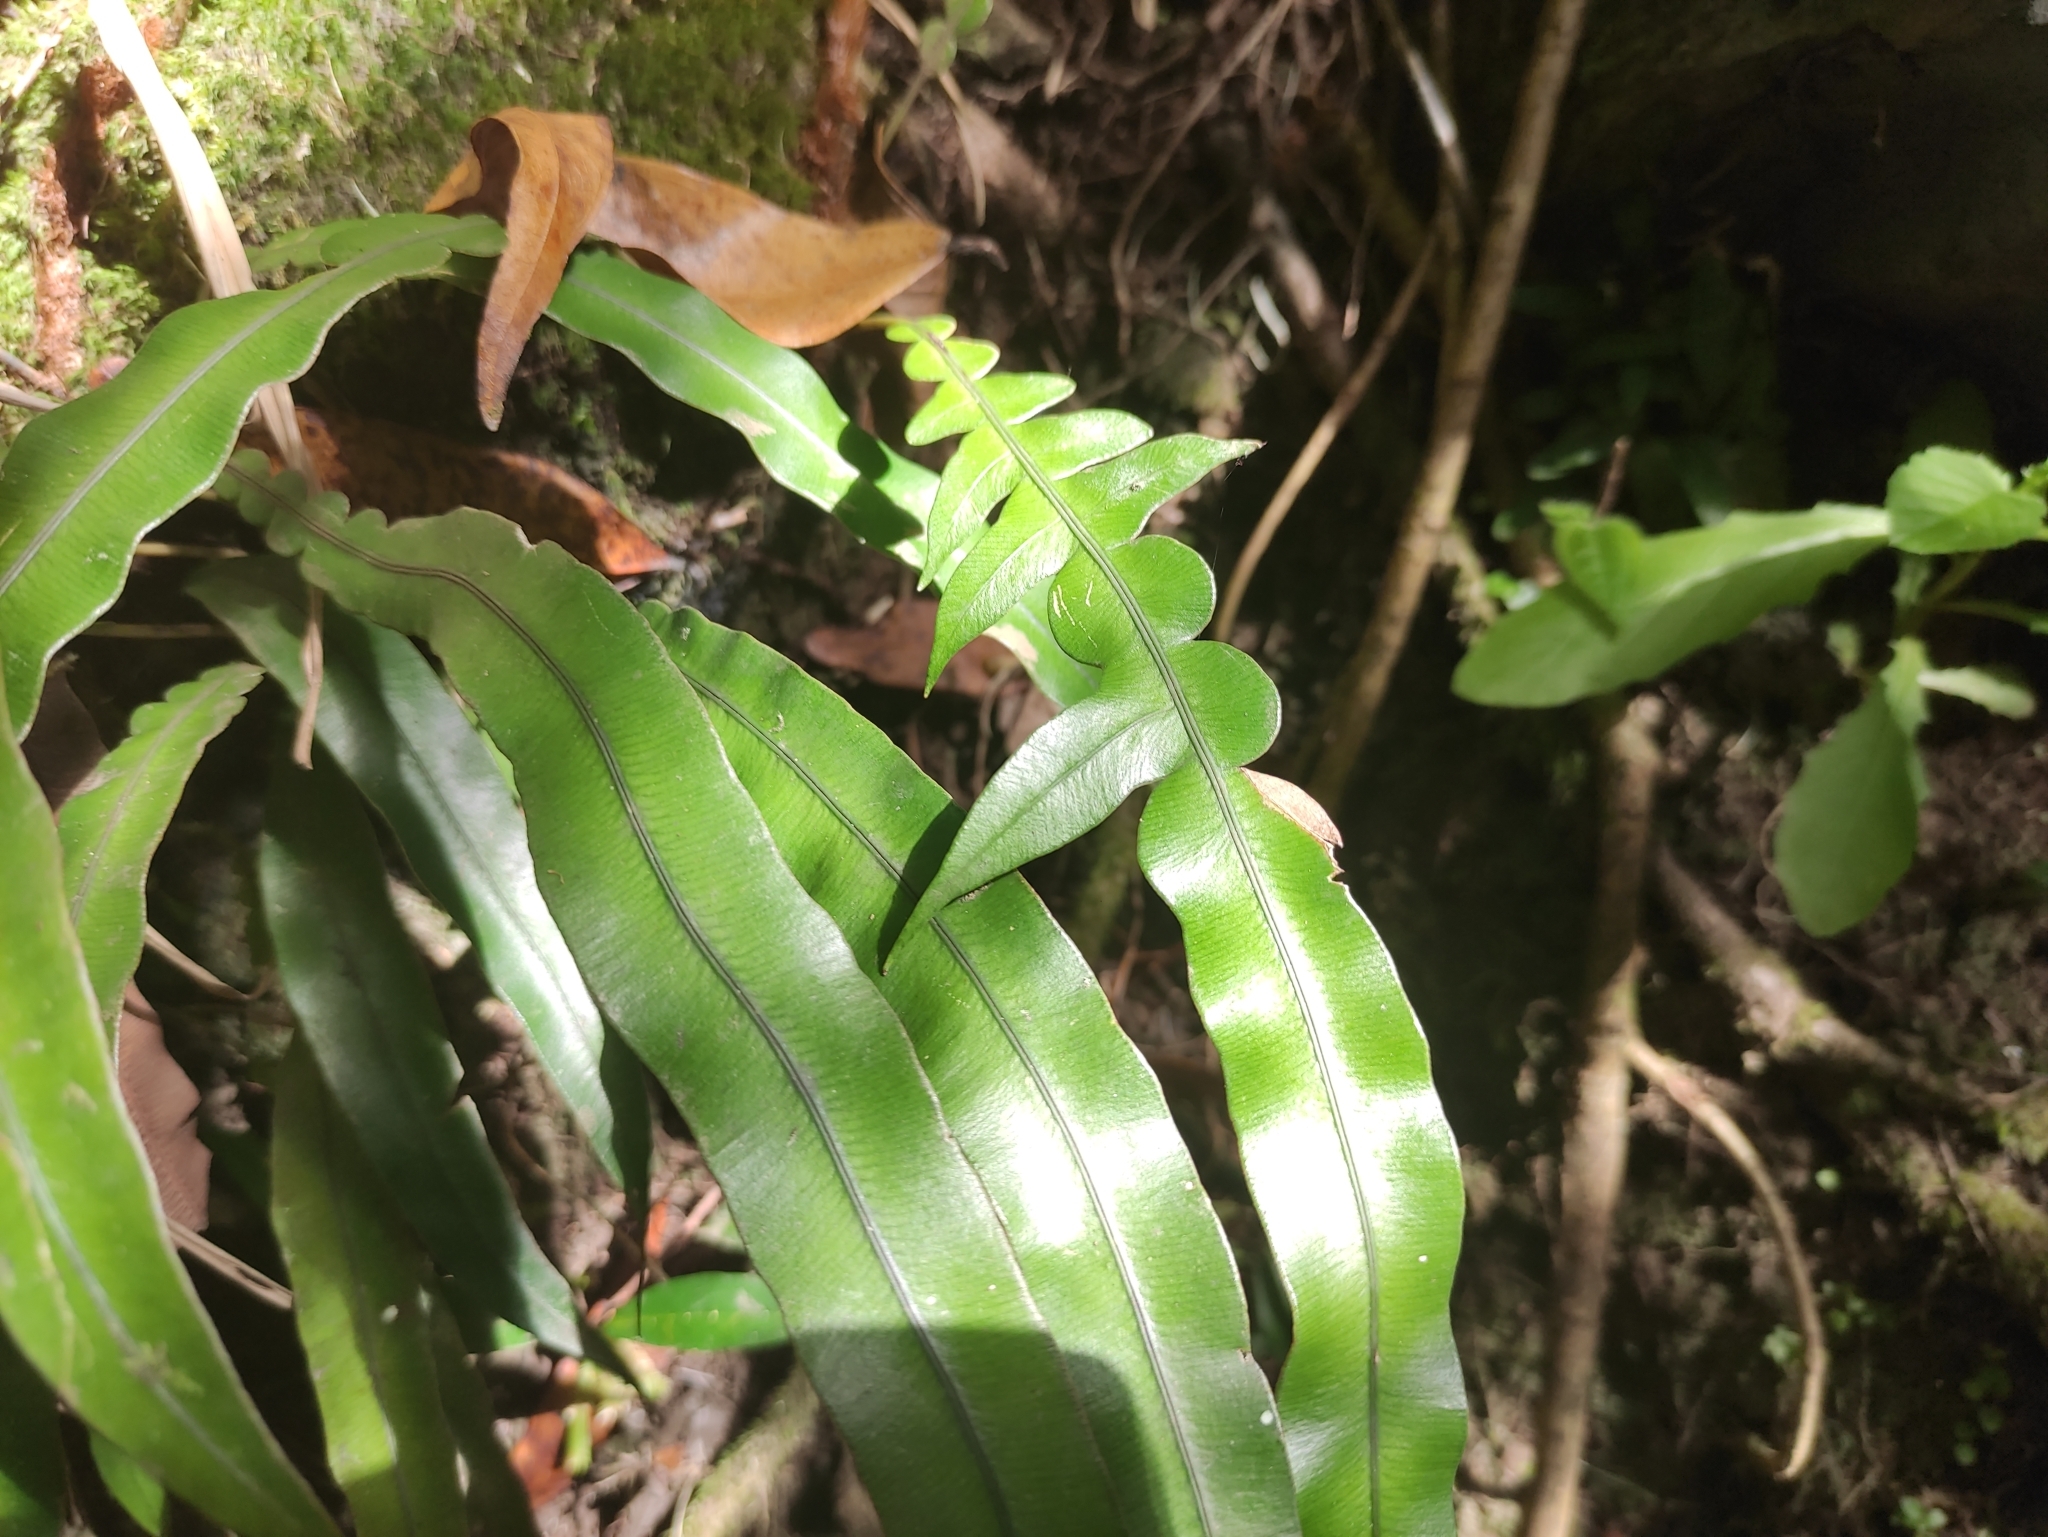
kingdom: Plantae
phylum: Tracheophyta
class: Polypodiopsida
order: Polypodiales
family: Blechnaceae
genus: Lomaridium
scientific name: Lomaridium attenuatum
